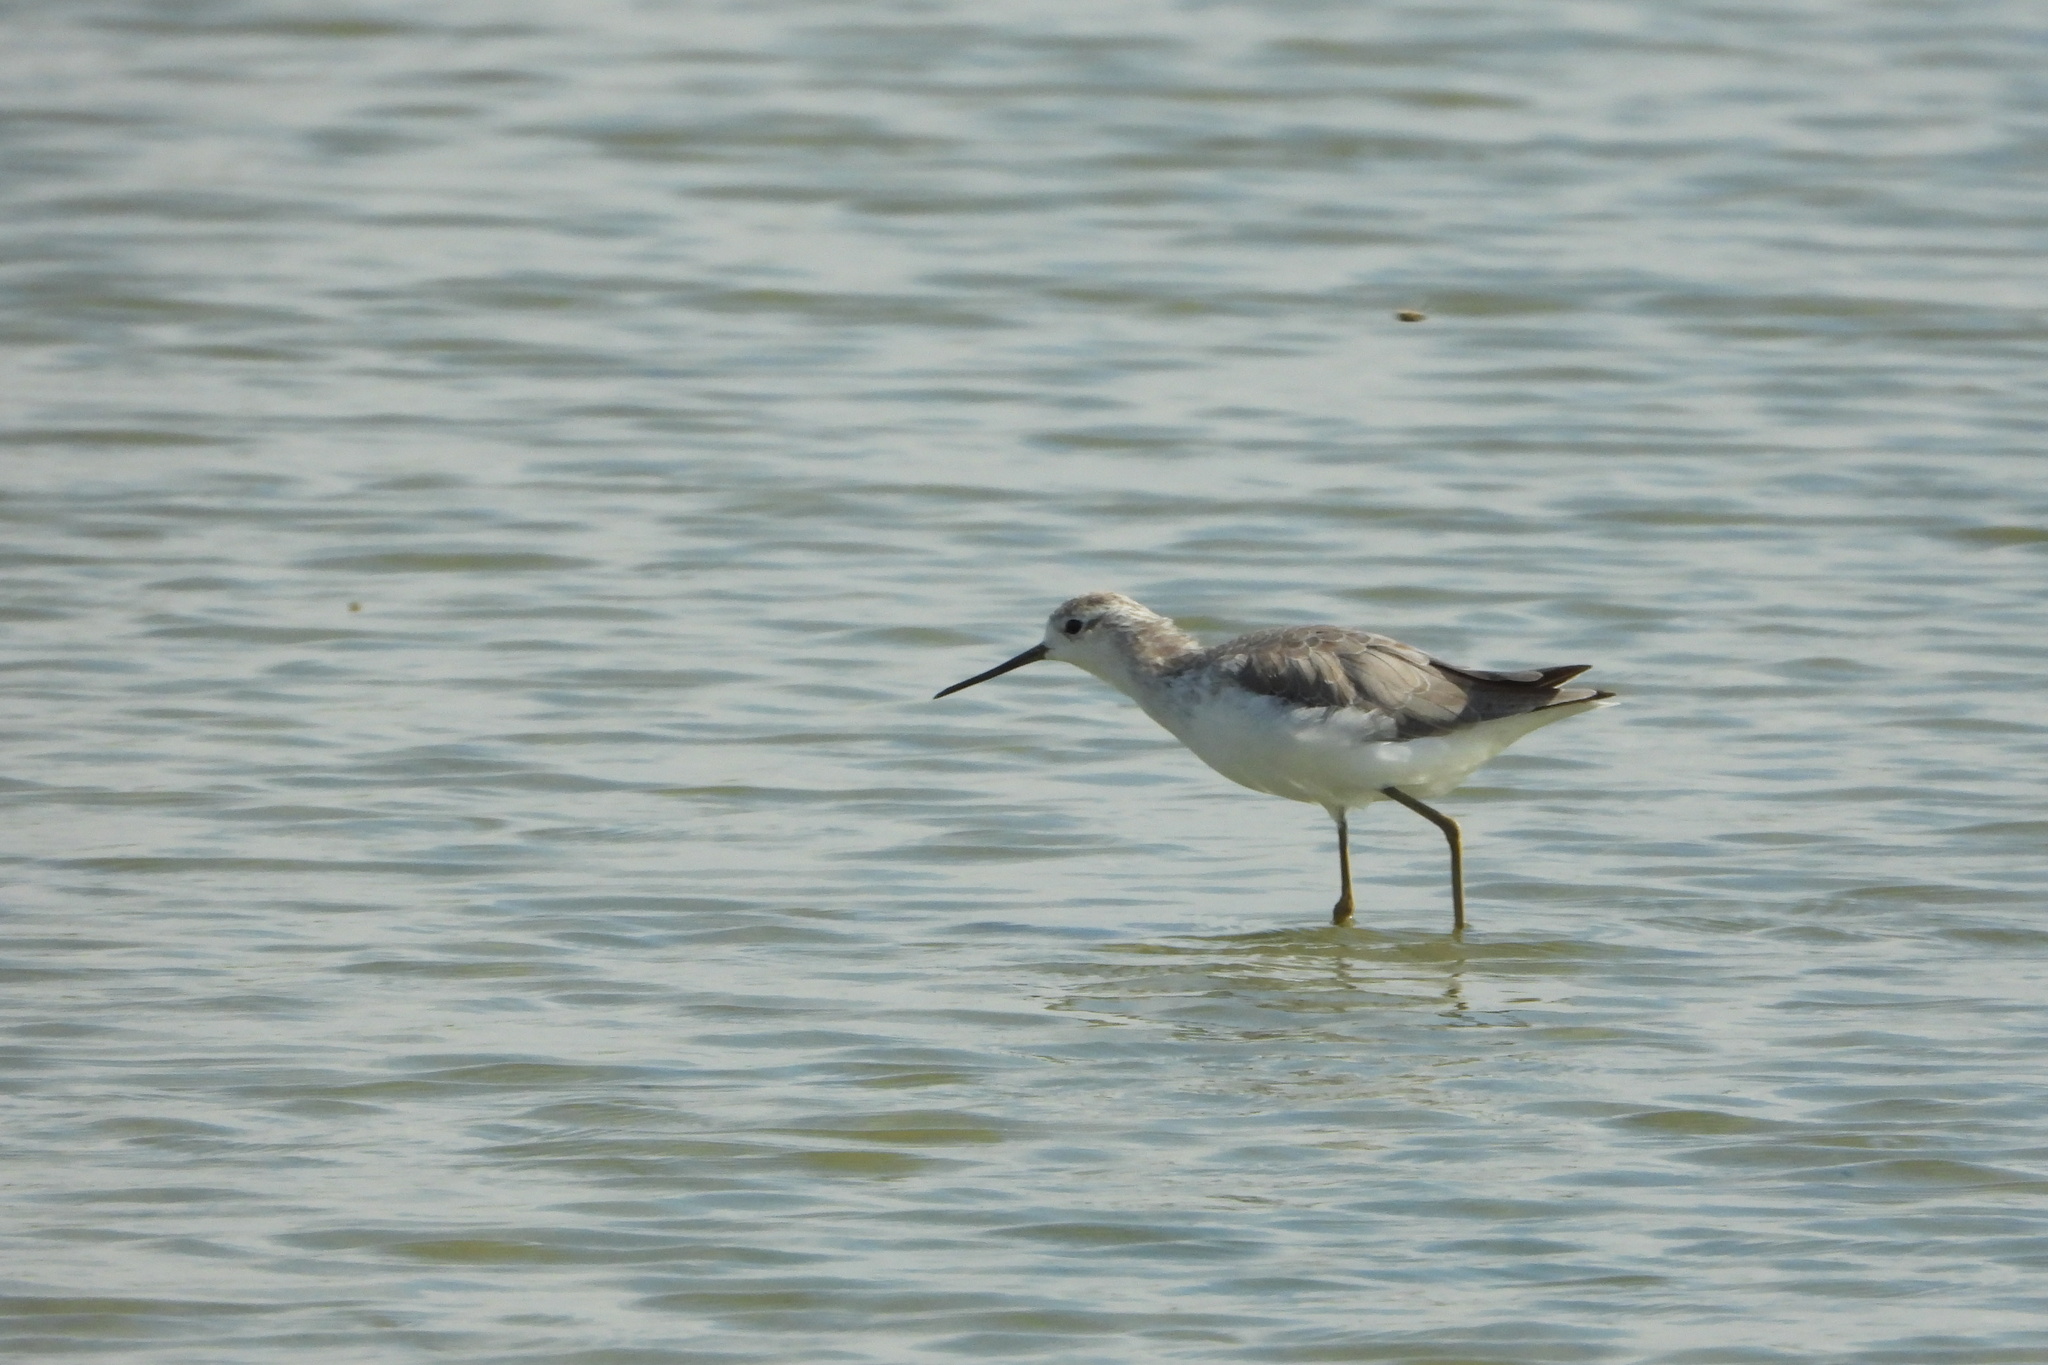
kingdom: Animalia
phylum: Chordata
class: Aves
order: Charadriiformes
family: Scolopacidae
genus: Tringa
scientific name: Tringa stagnatilis
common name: Marsh sandpiper
